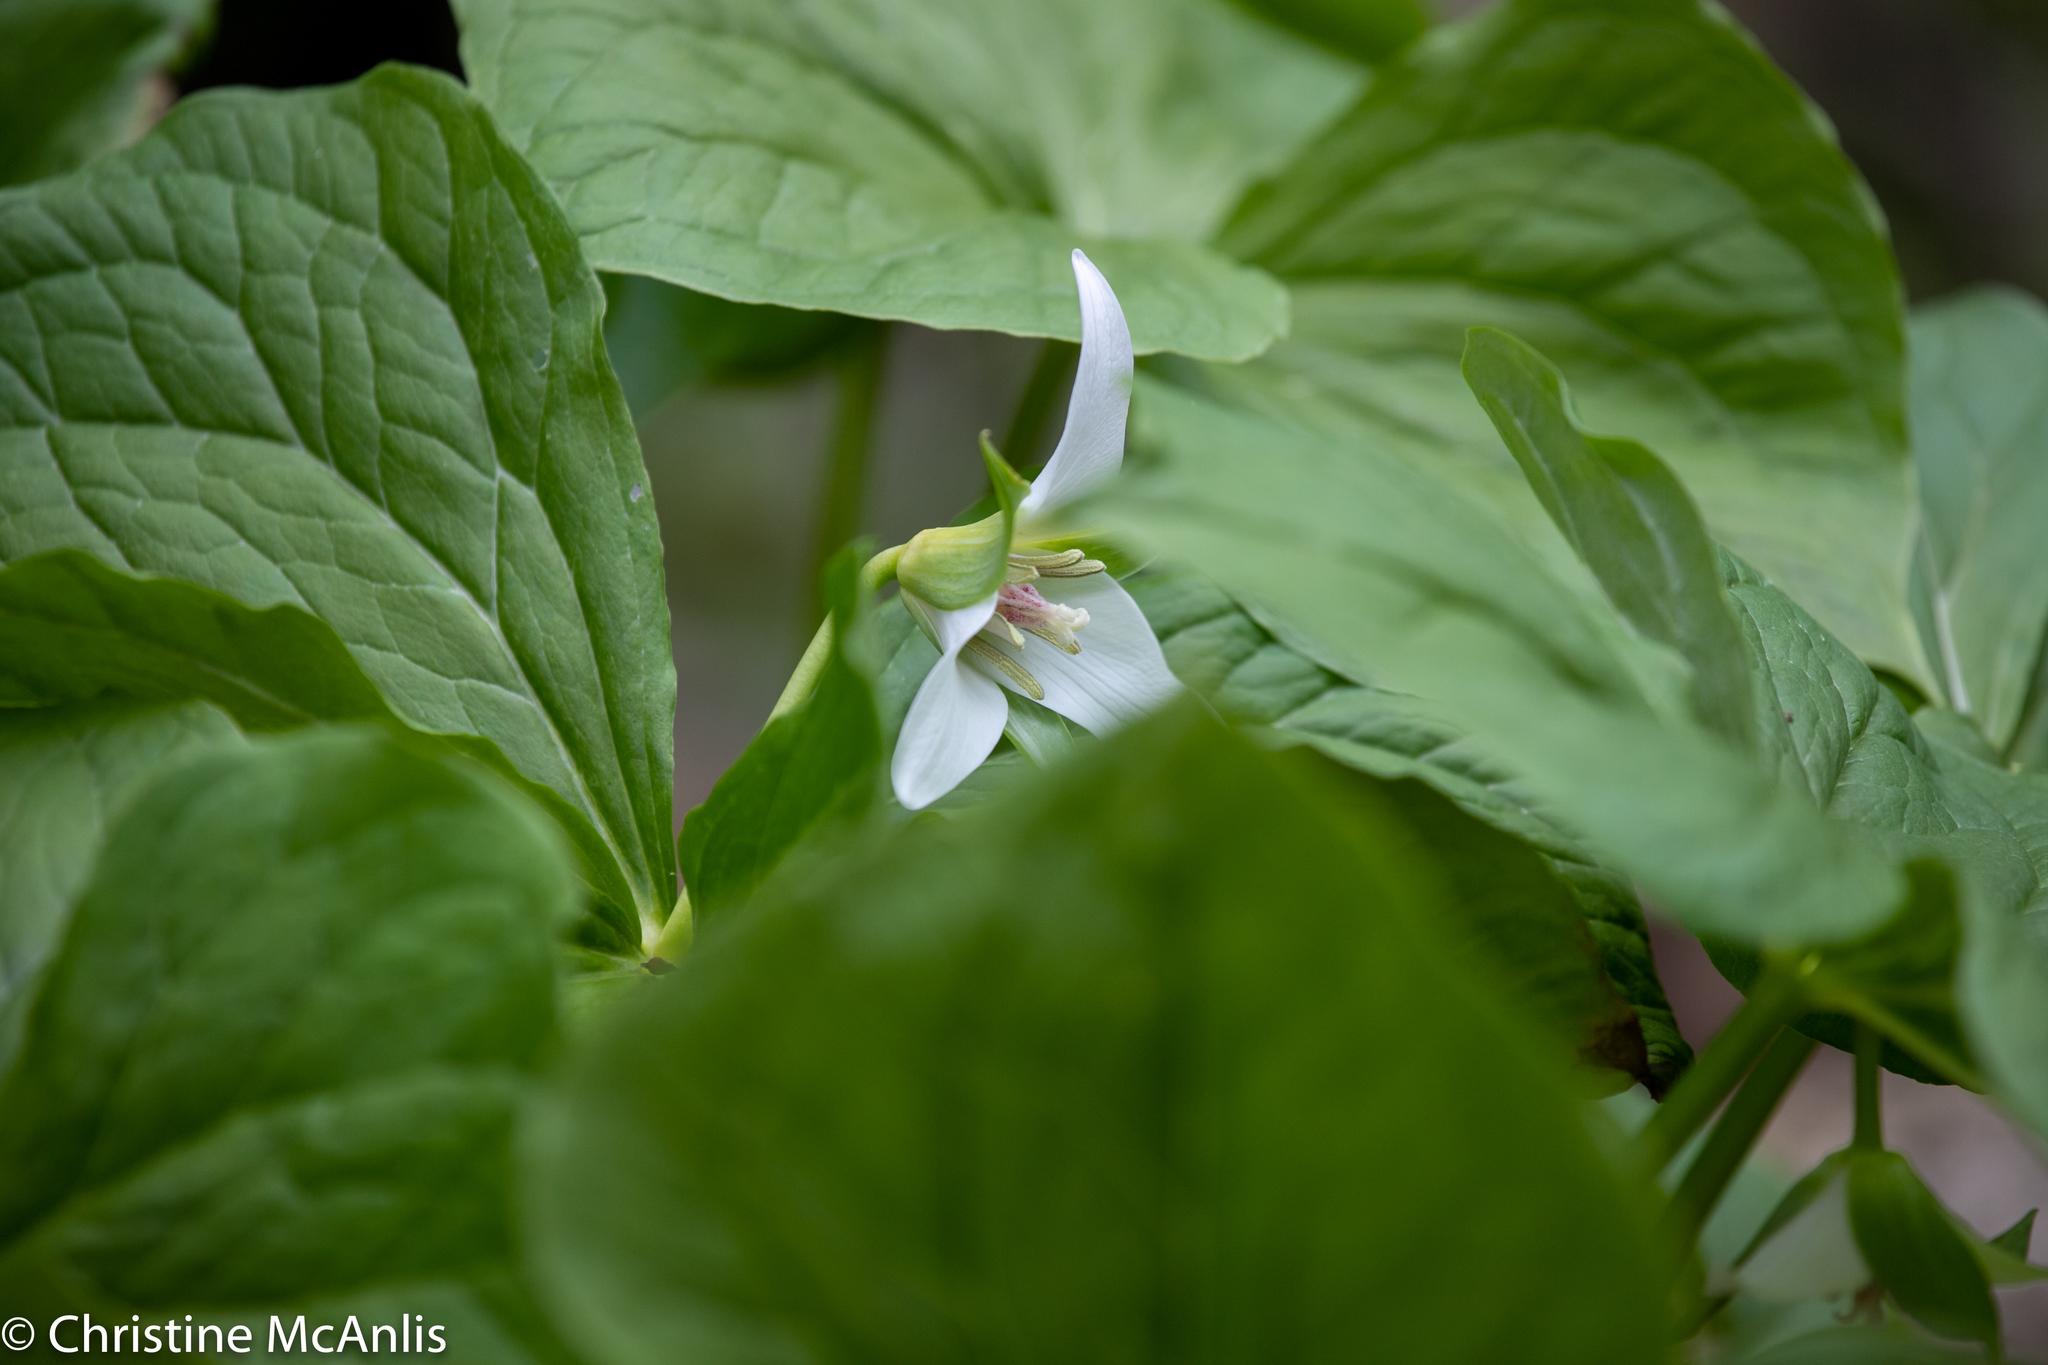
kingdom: Plantae
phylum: Tracheophyta
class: Liliopsida
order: Liliales
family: Melanthiaceae
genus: Trillium
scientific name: Trillium flexipes
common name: Drooping trillium
